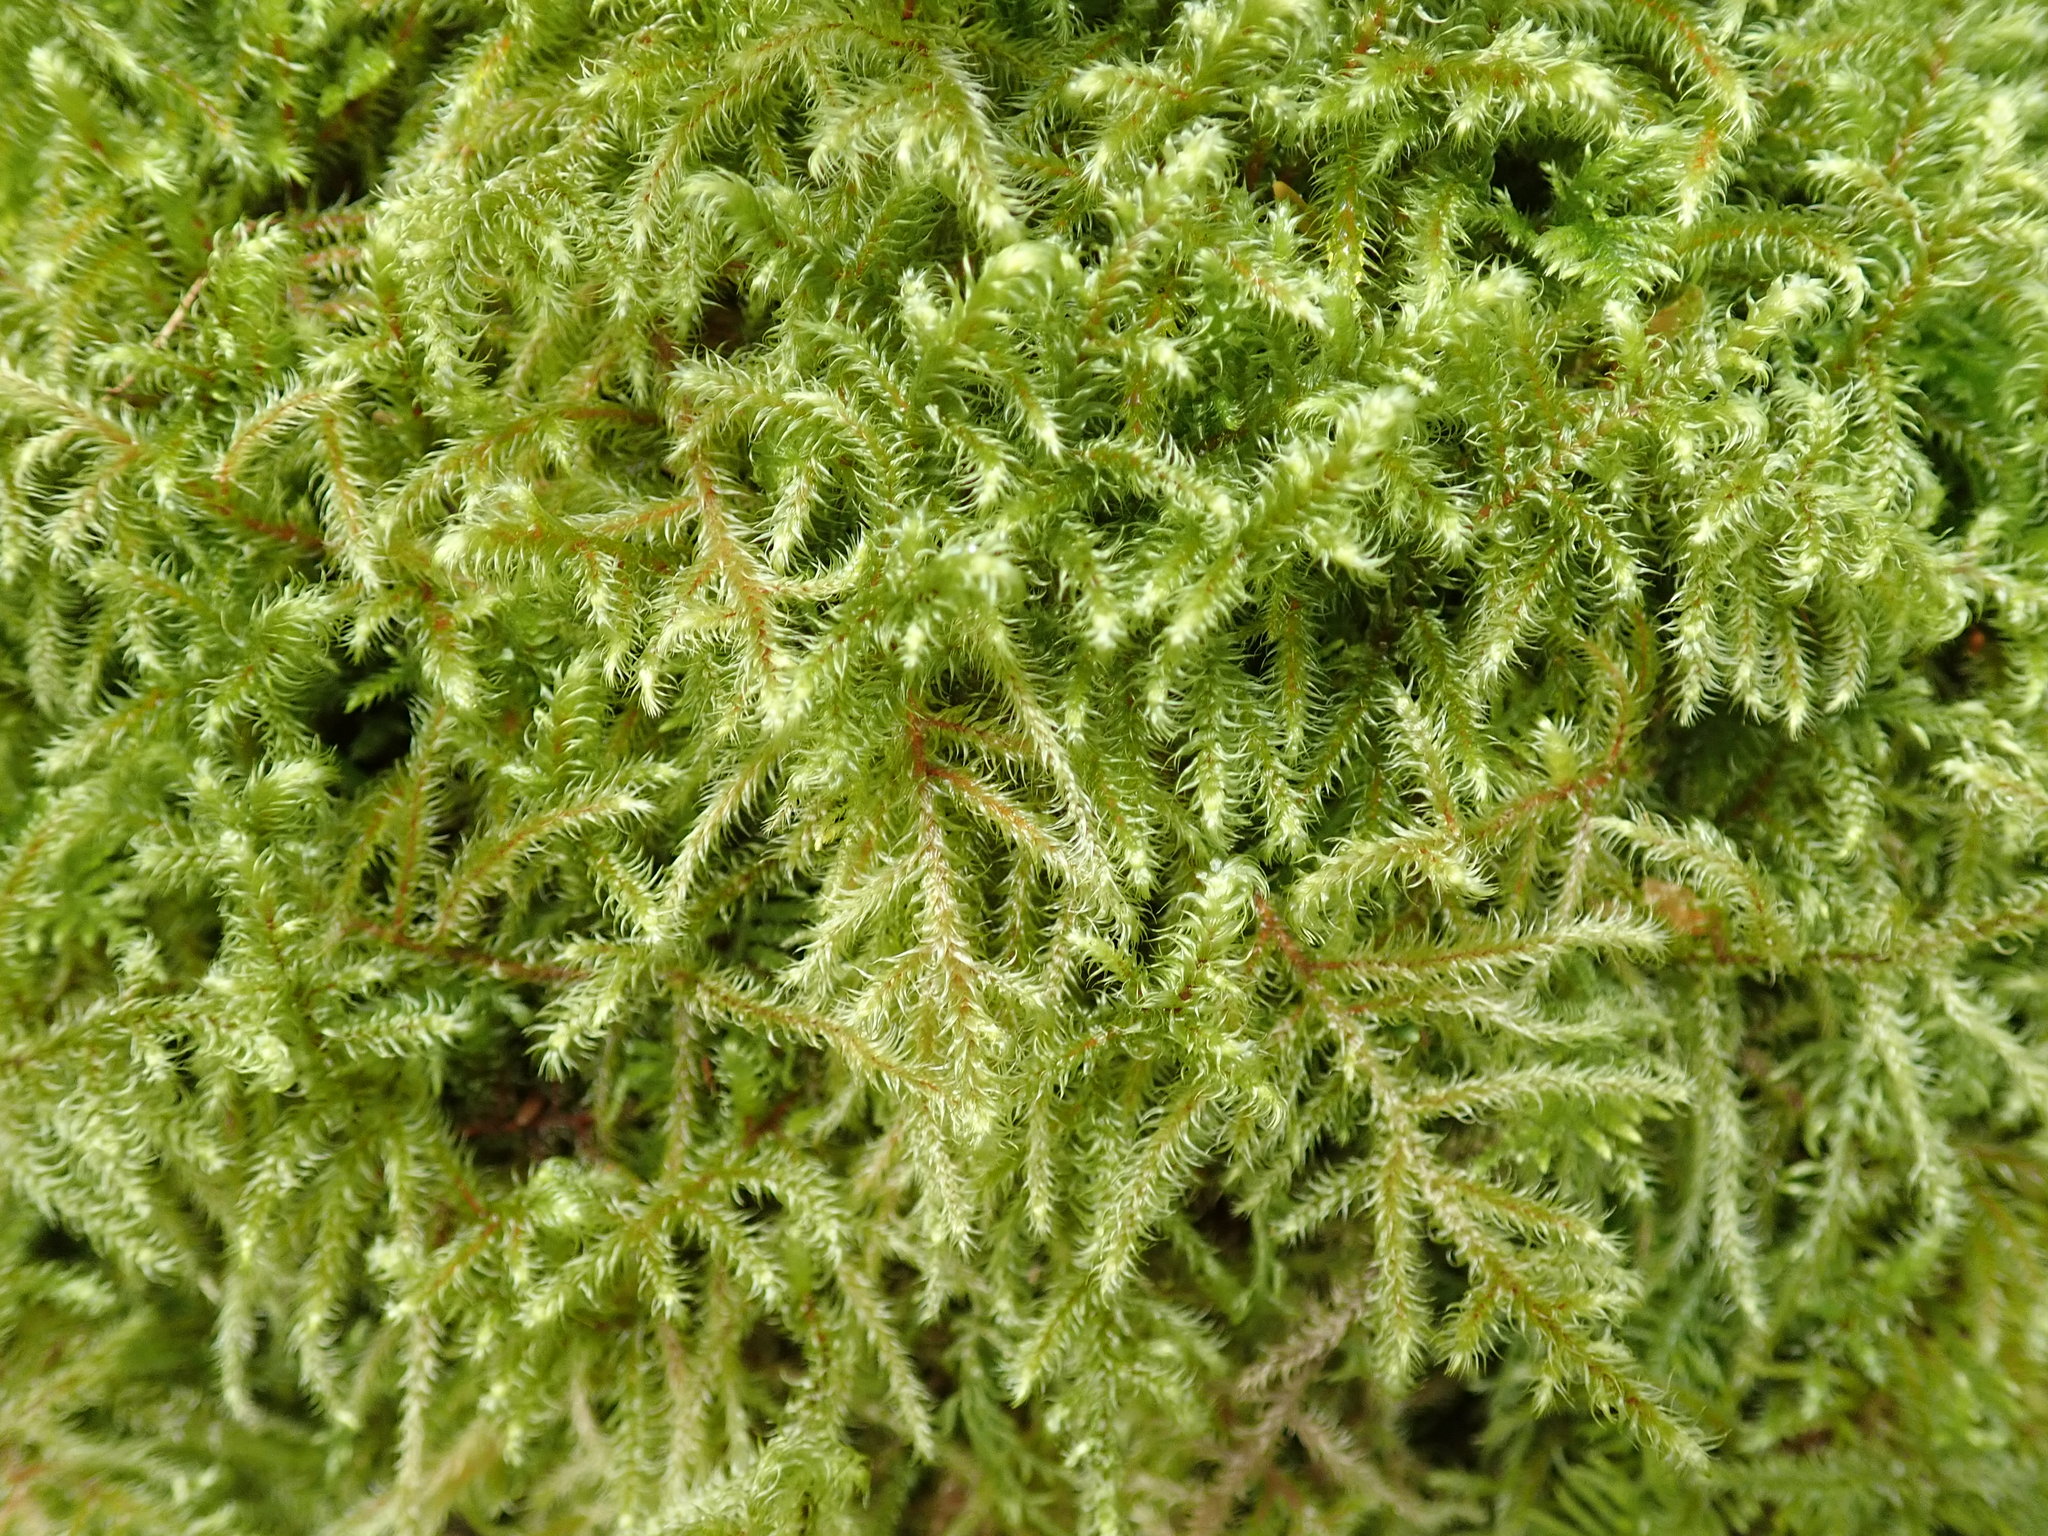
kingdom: Plantae
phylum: Bryophyta
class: Bryopsida
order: Hypnales
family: Hylocomiaceae
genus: Rhytidiadelphus
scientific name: Rhytidiadelphus loreus
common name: Lanky moss
